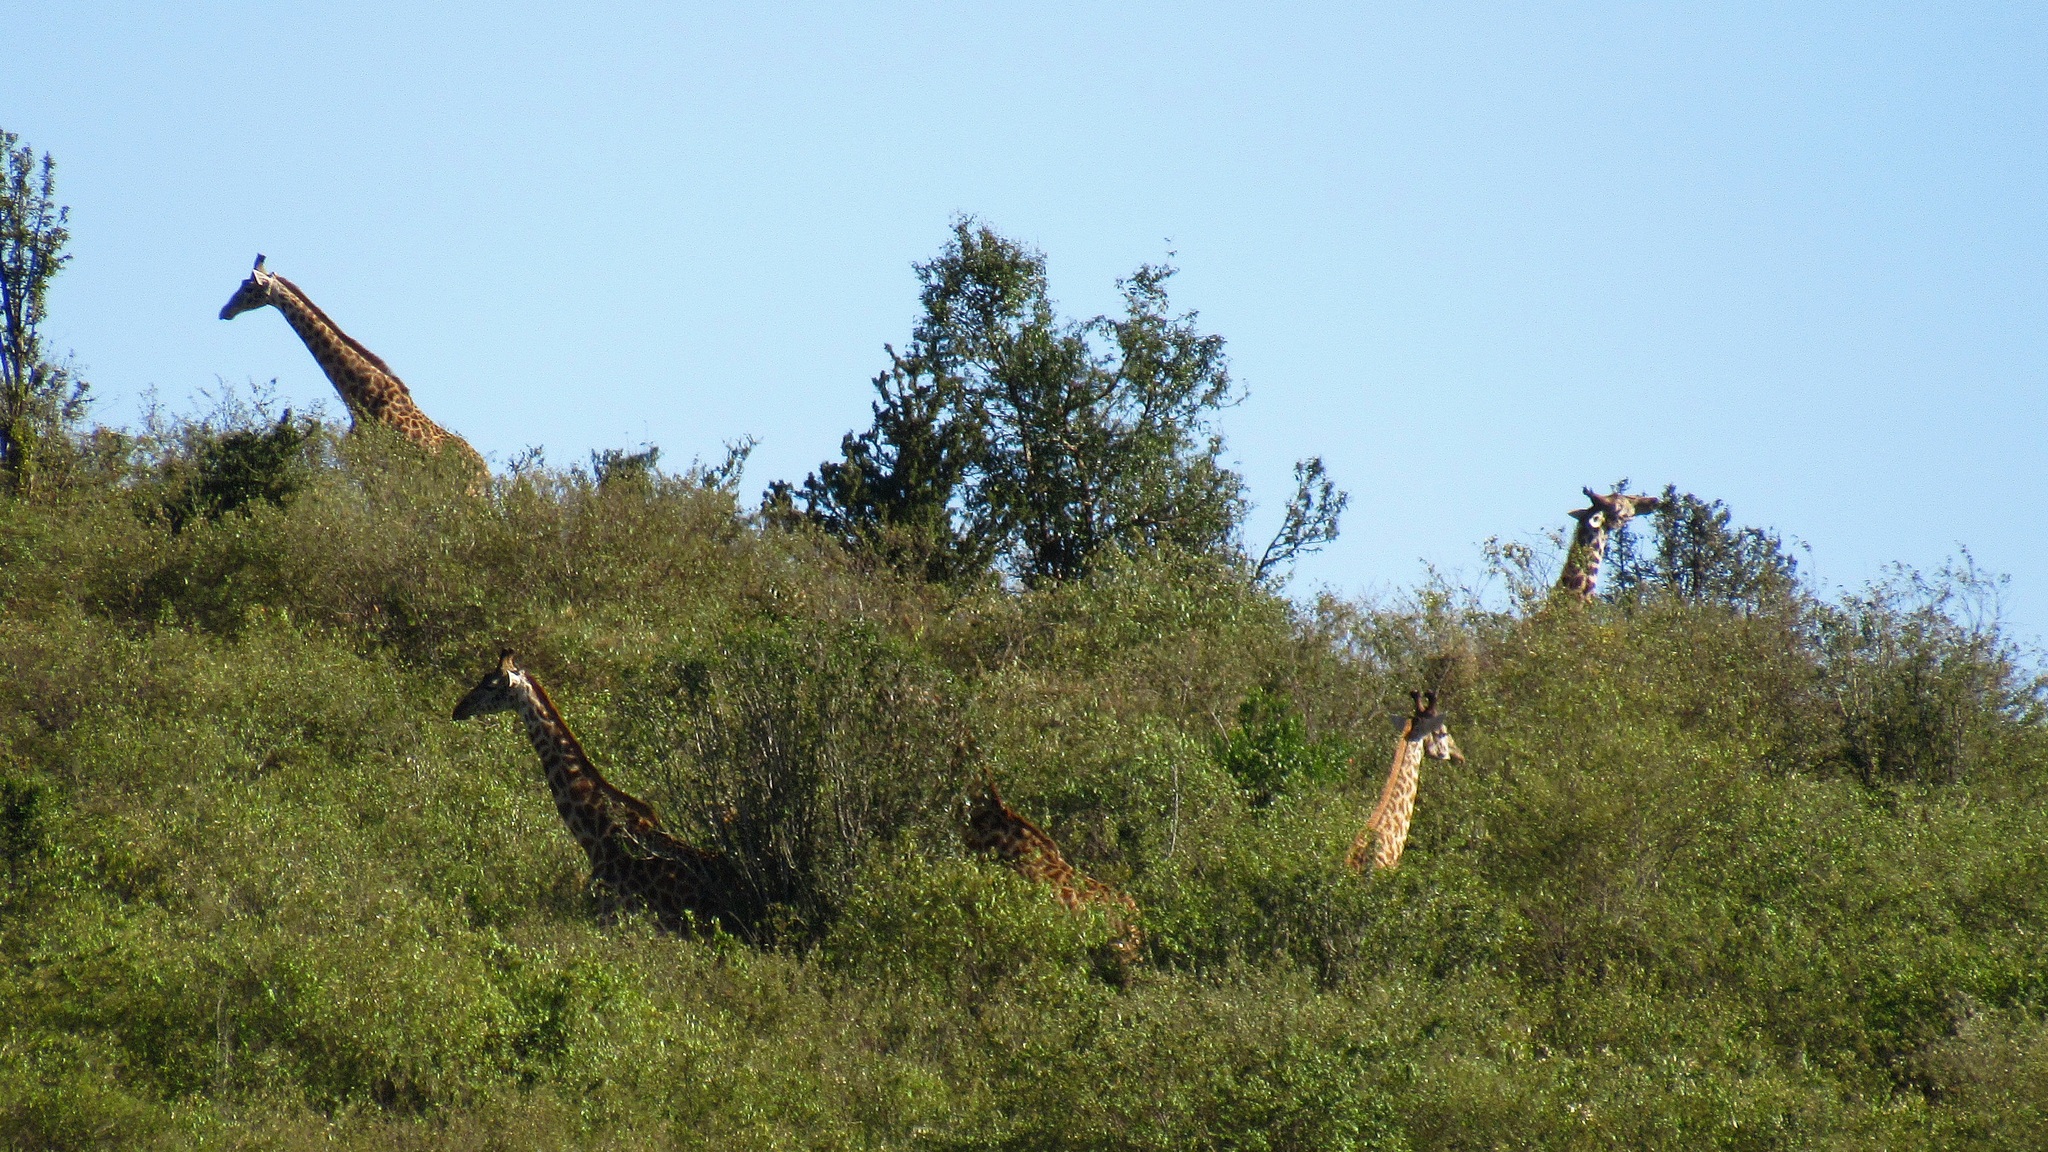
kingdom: Animalia
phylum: Chordata
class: Mammalia
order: Artiodactyla
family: Giraffidae
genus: Giraffa
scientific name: Giraffa tippelskirchi
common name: Masai giraffe
